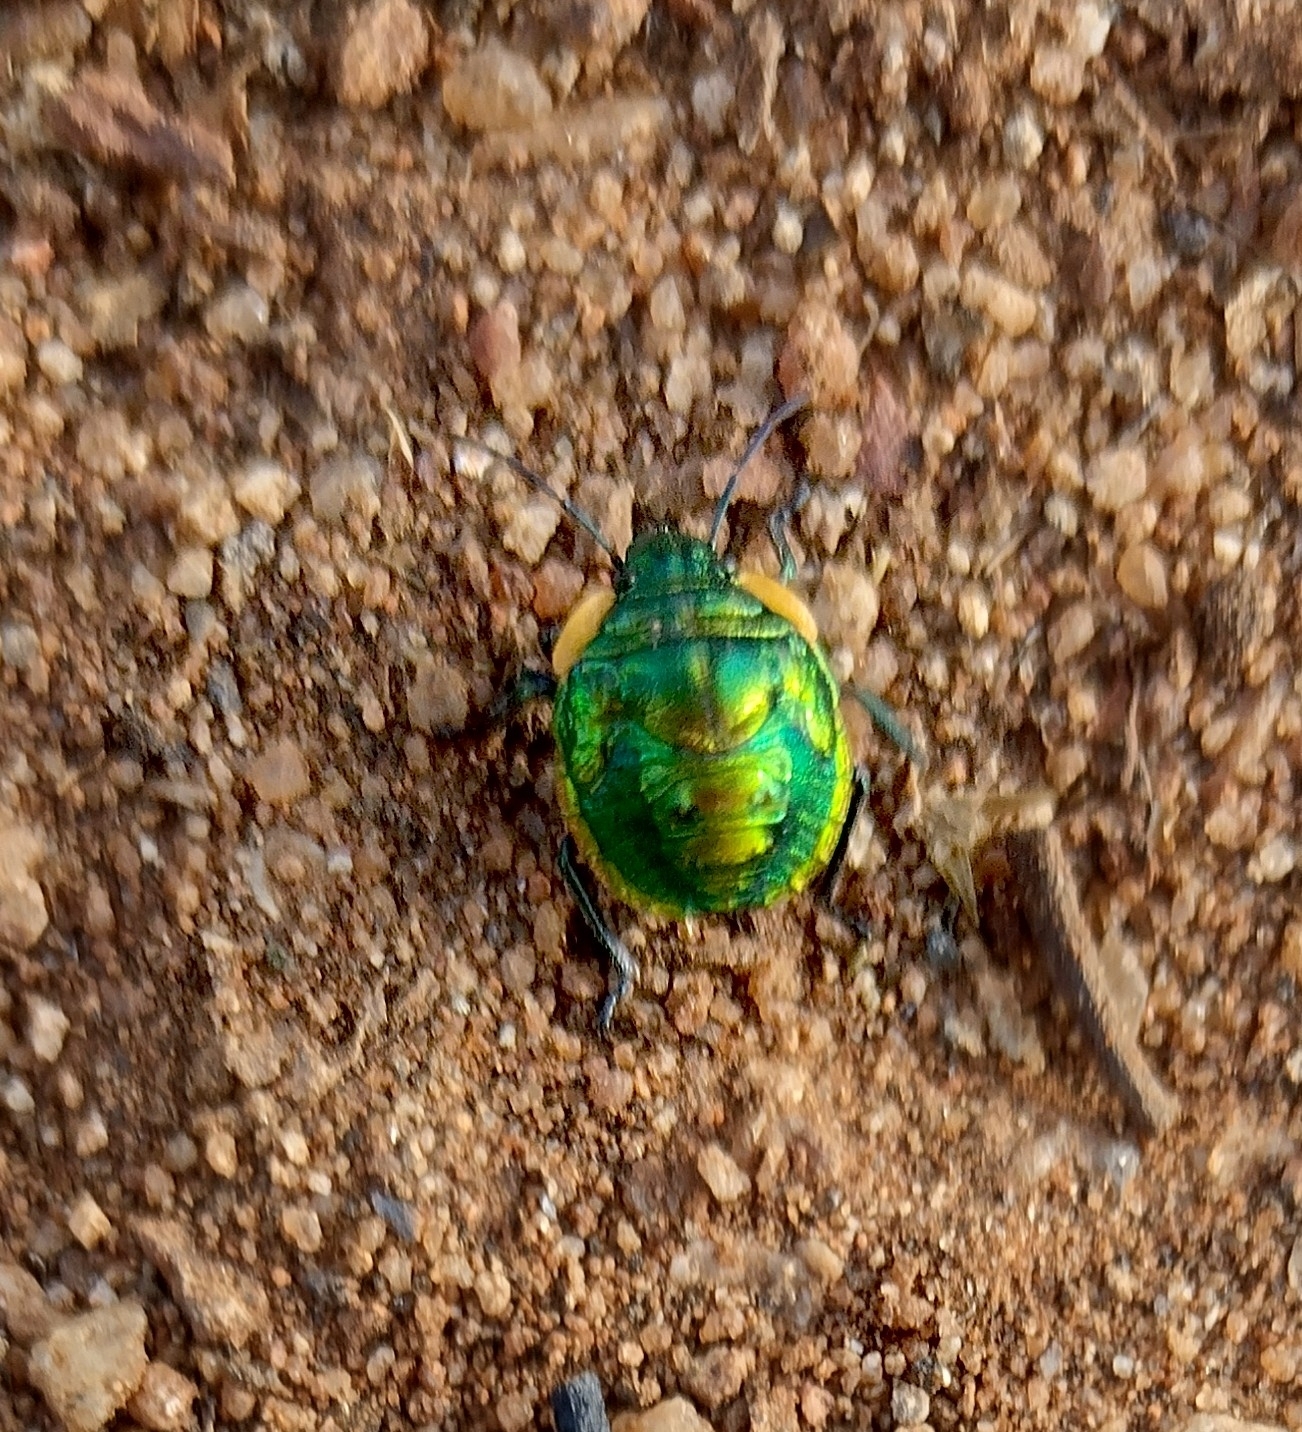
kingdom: Animalia
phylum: Arthropoda
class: Insecta
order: Hemiptera
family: Scutelleridae
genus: Pachycoris
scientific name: Pachycoris torridus
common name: Torrid jewel bug
